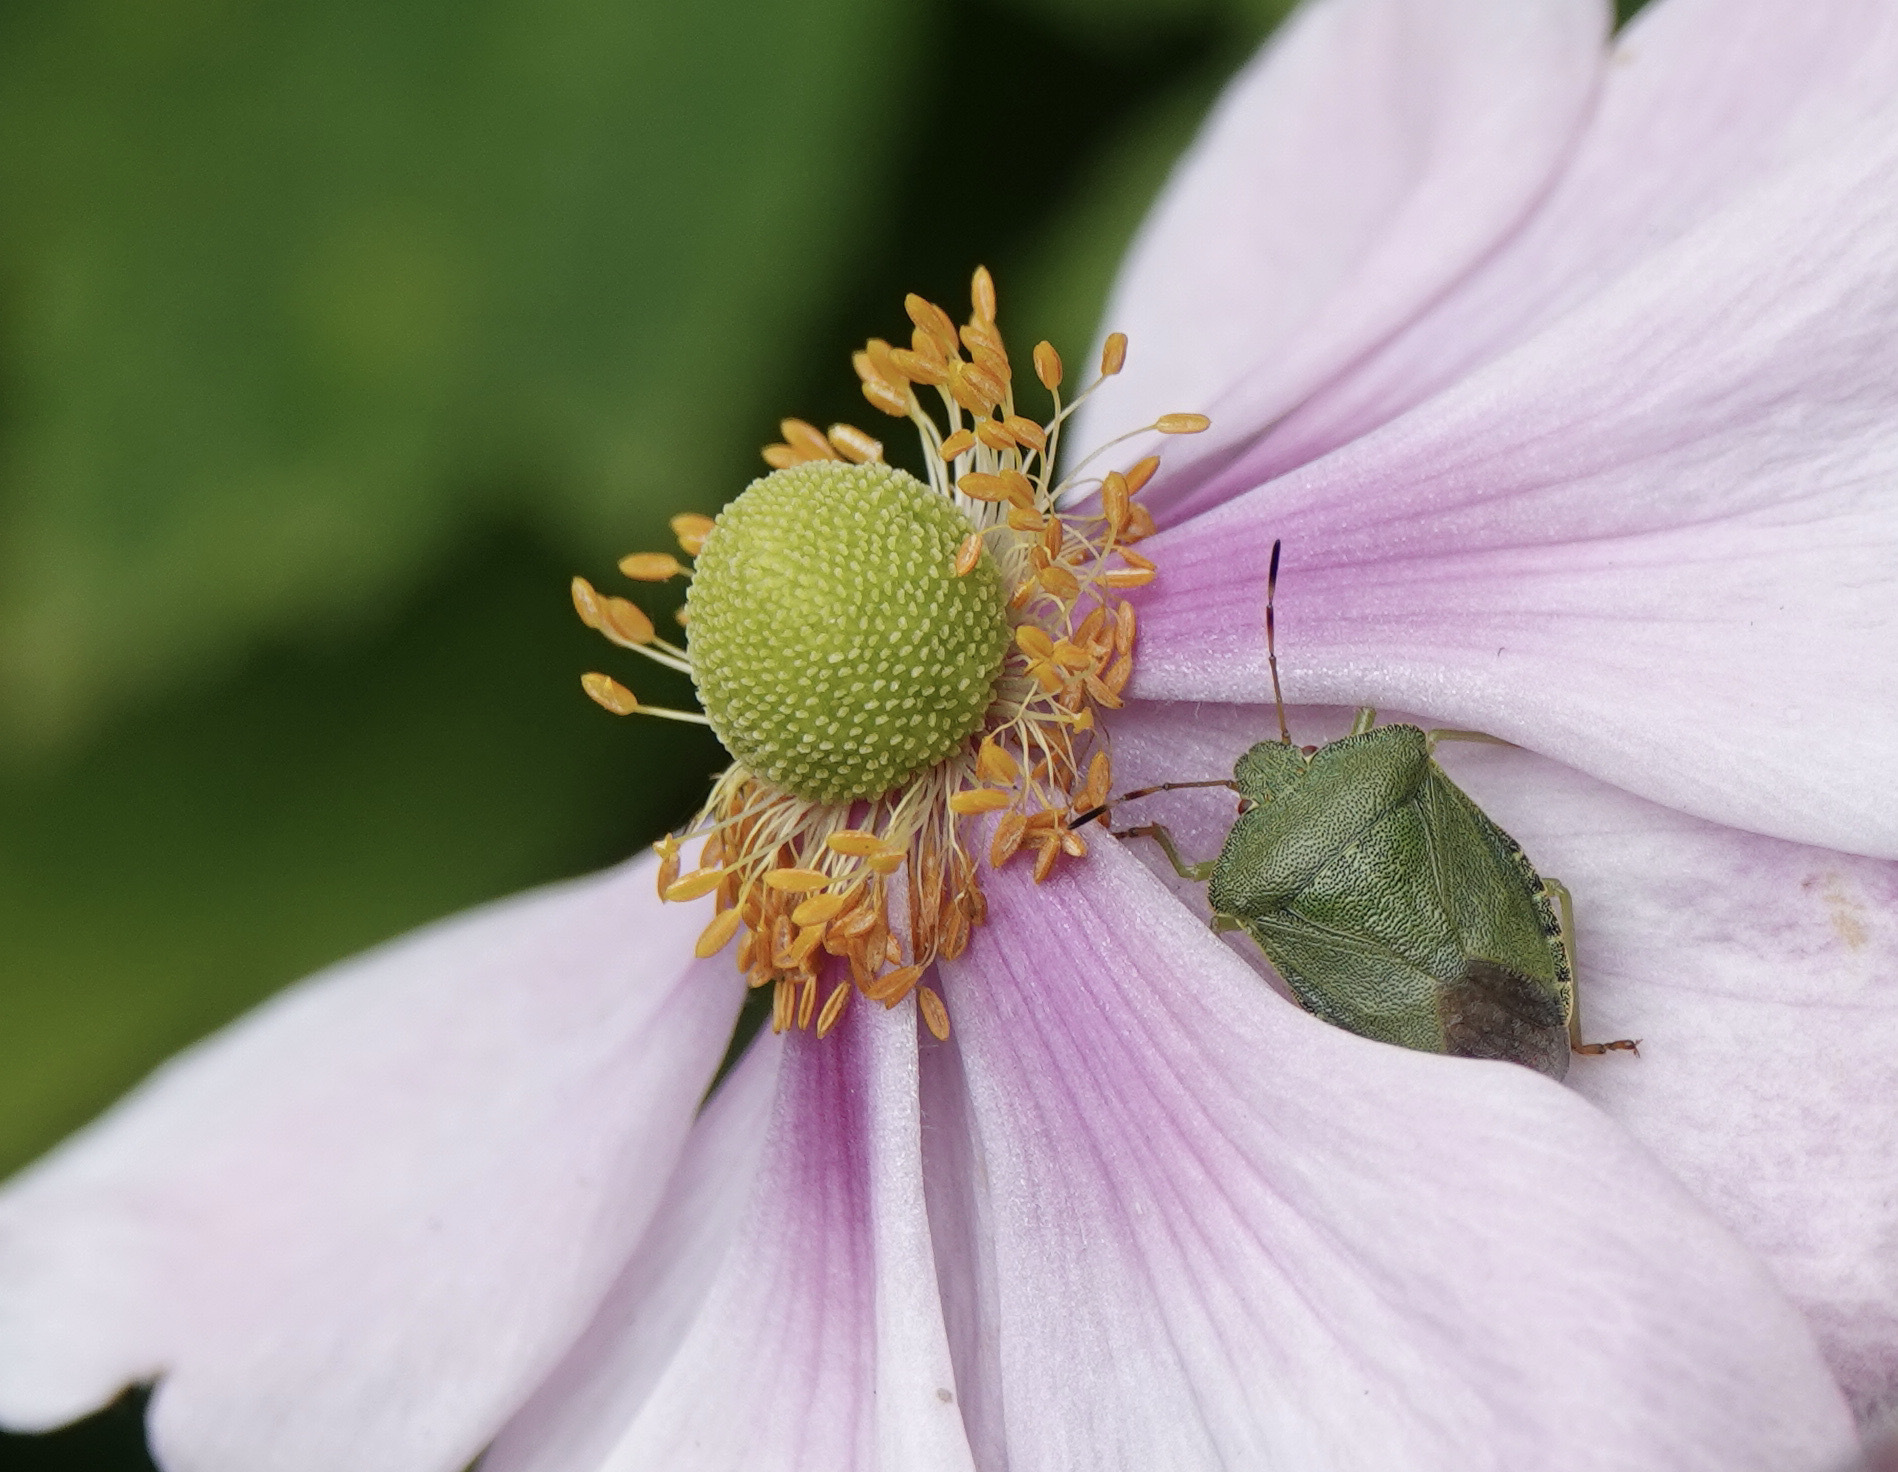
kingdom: Animalia
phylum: Arthropoda
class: Insecta
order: Hemiptera
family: Pentatomidae
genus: Palomena
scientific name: Palomena prasina
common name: Green shieldbug
